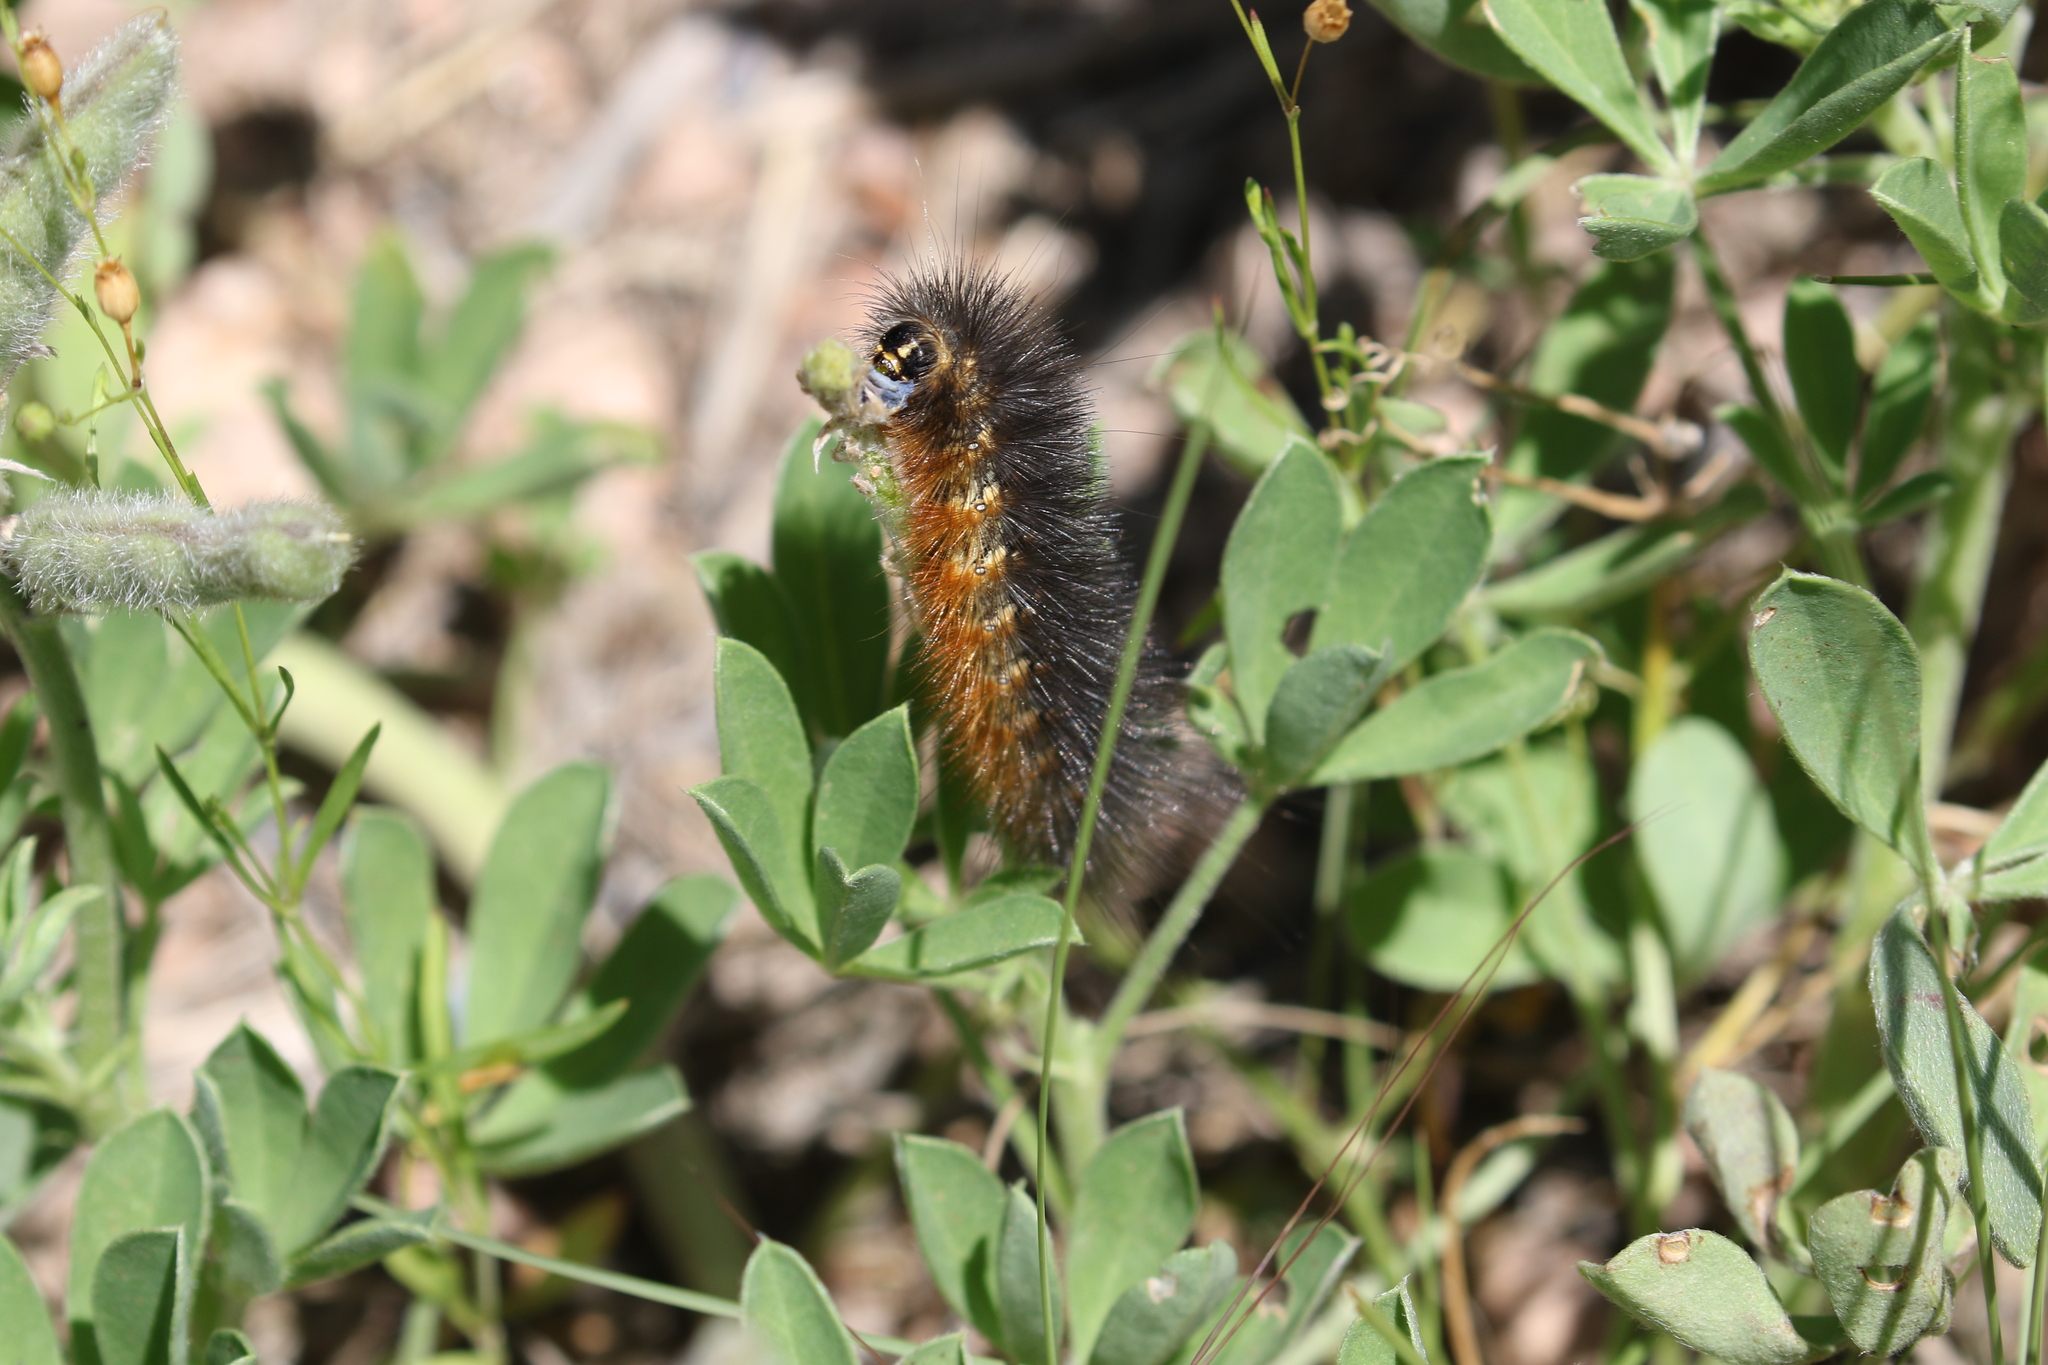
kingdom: Animalia
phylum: Arthropoda
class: Insecta
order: Lepidoptera
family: Erebidae
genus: Estigmene
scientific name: Estigmene acrea
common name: Salt marsh moth
